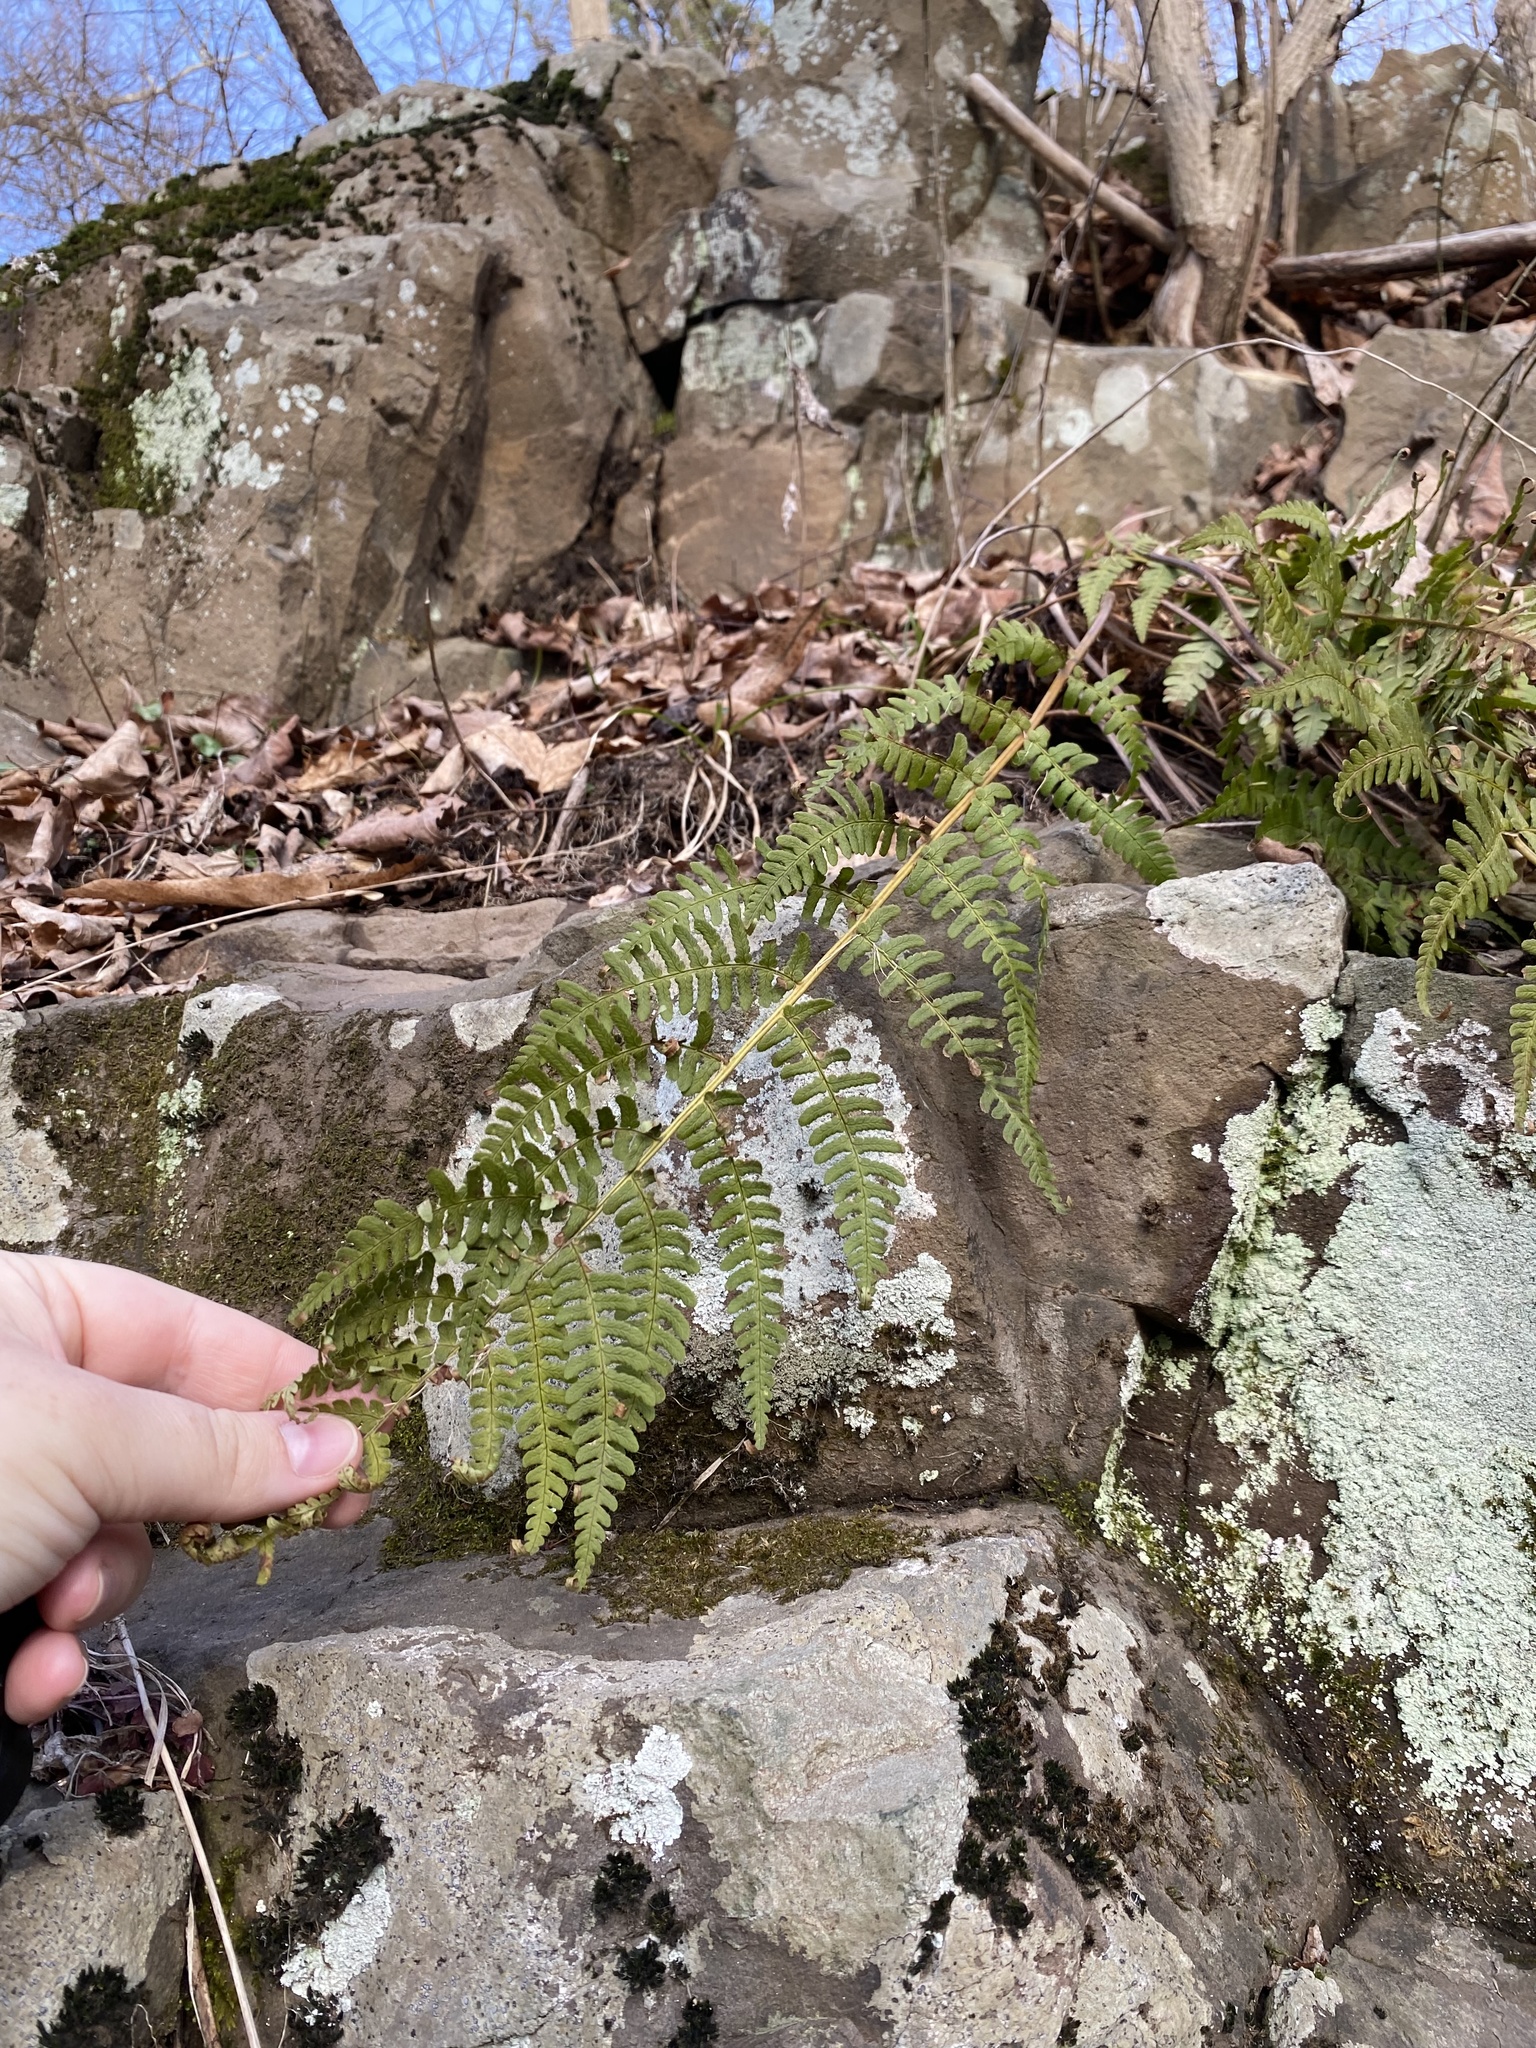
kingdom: Plantae
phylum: Tracheophyta
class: Polypodiopsida
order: Polypodiales
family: Dryopteridaceae
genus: Dryopteris
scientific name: Dryopteris marginalis
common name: Marginal wood fern
